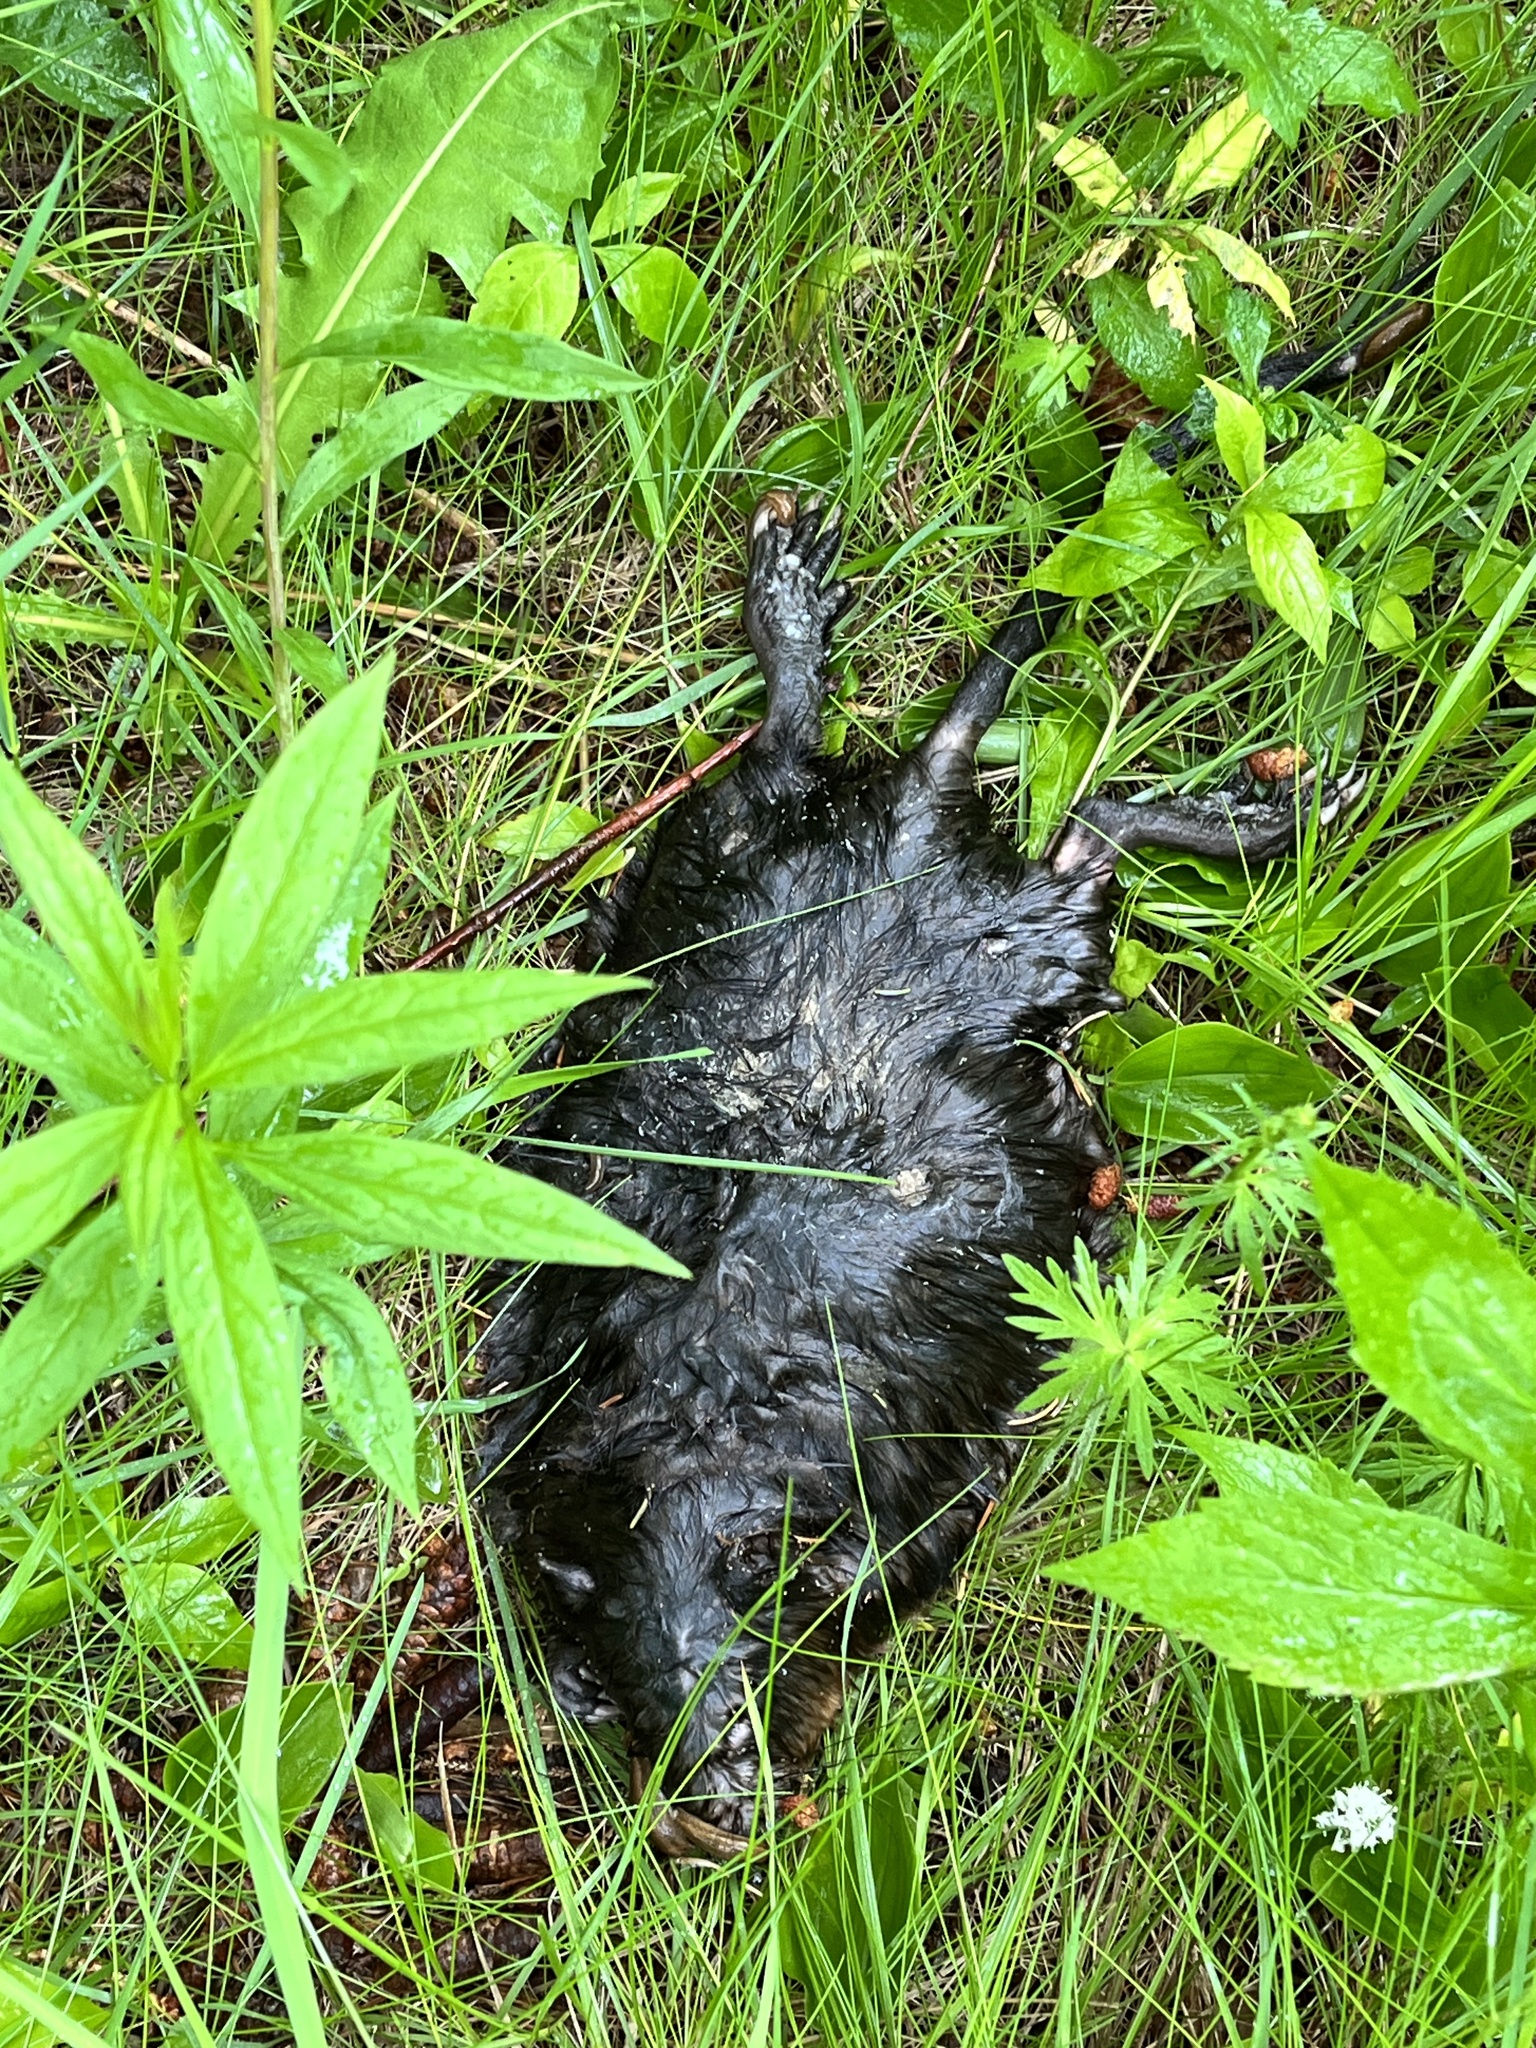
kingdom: Animalia
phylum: Chordata
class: Mammalia
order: Rodentia
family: Cricetidae
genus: Ondatra
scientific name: Ondatra zibethicus
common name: Muskrat
